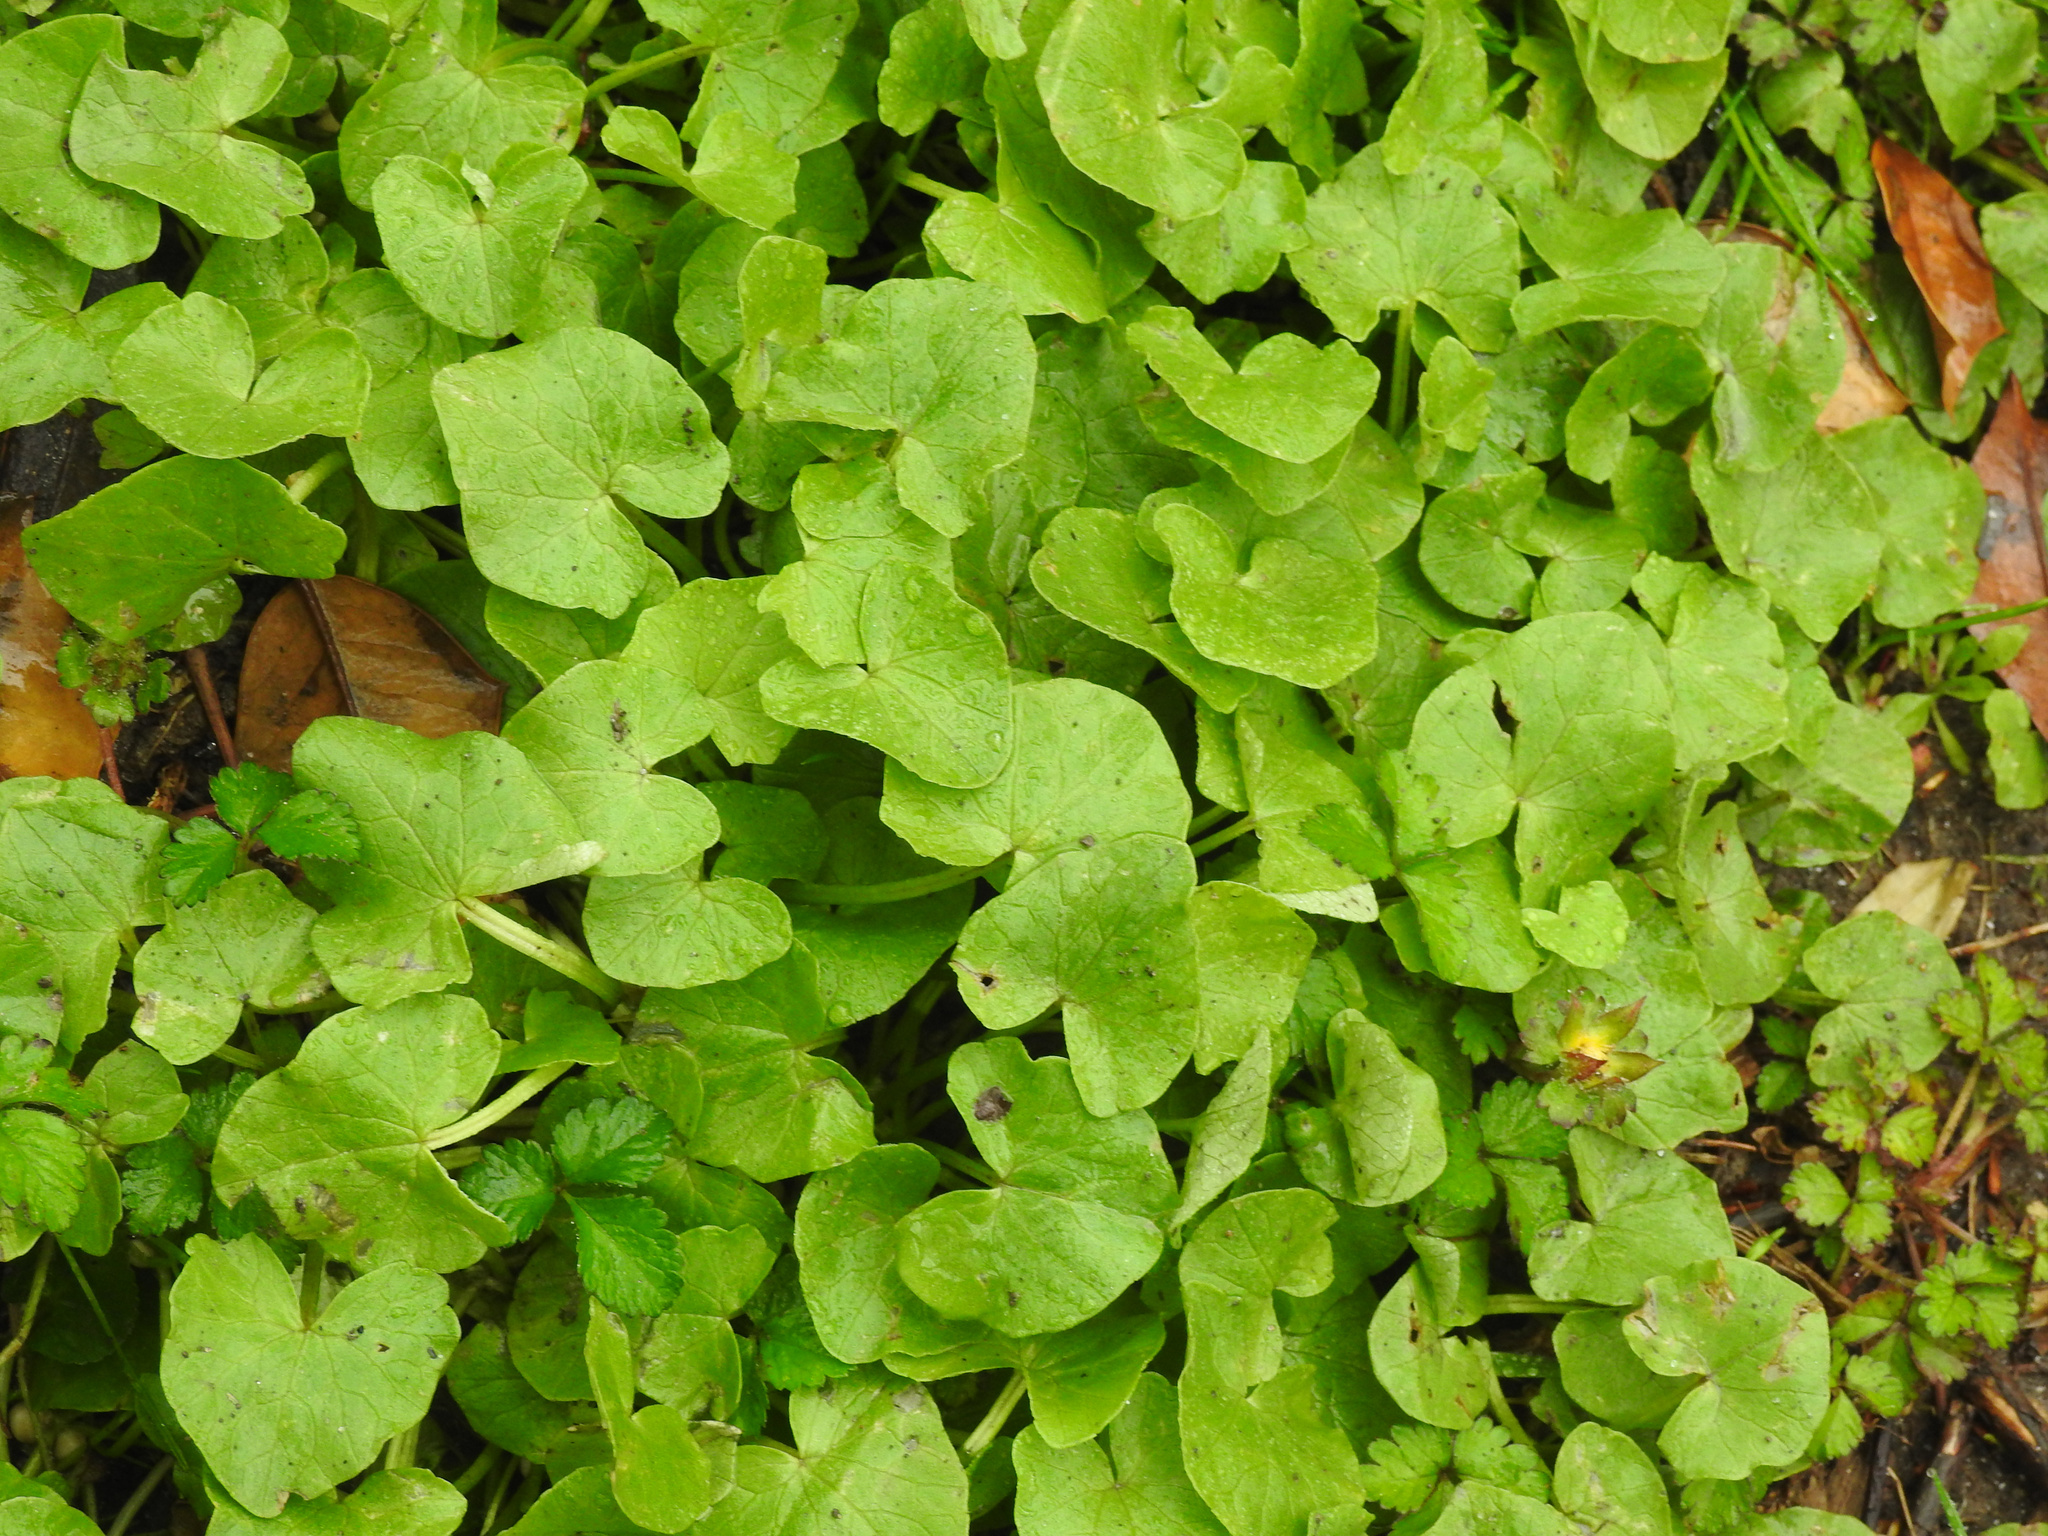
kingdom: Plantae
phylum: Tracheophyta
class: Magnoliopsida
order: Ranunculales
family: Ranunculaceae
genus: Ficaria
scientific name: Ficaria verna
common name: Lesser celandine
